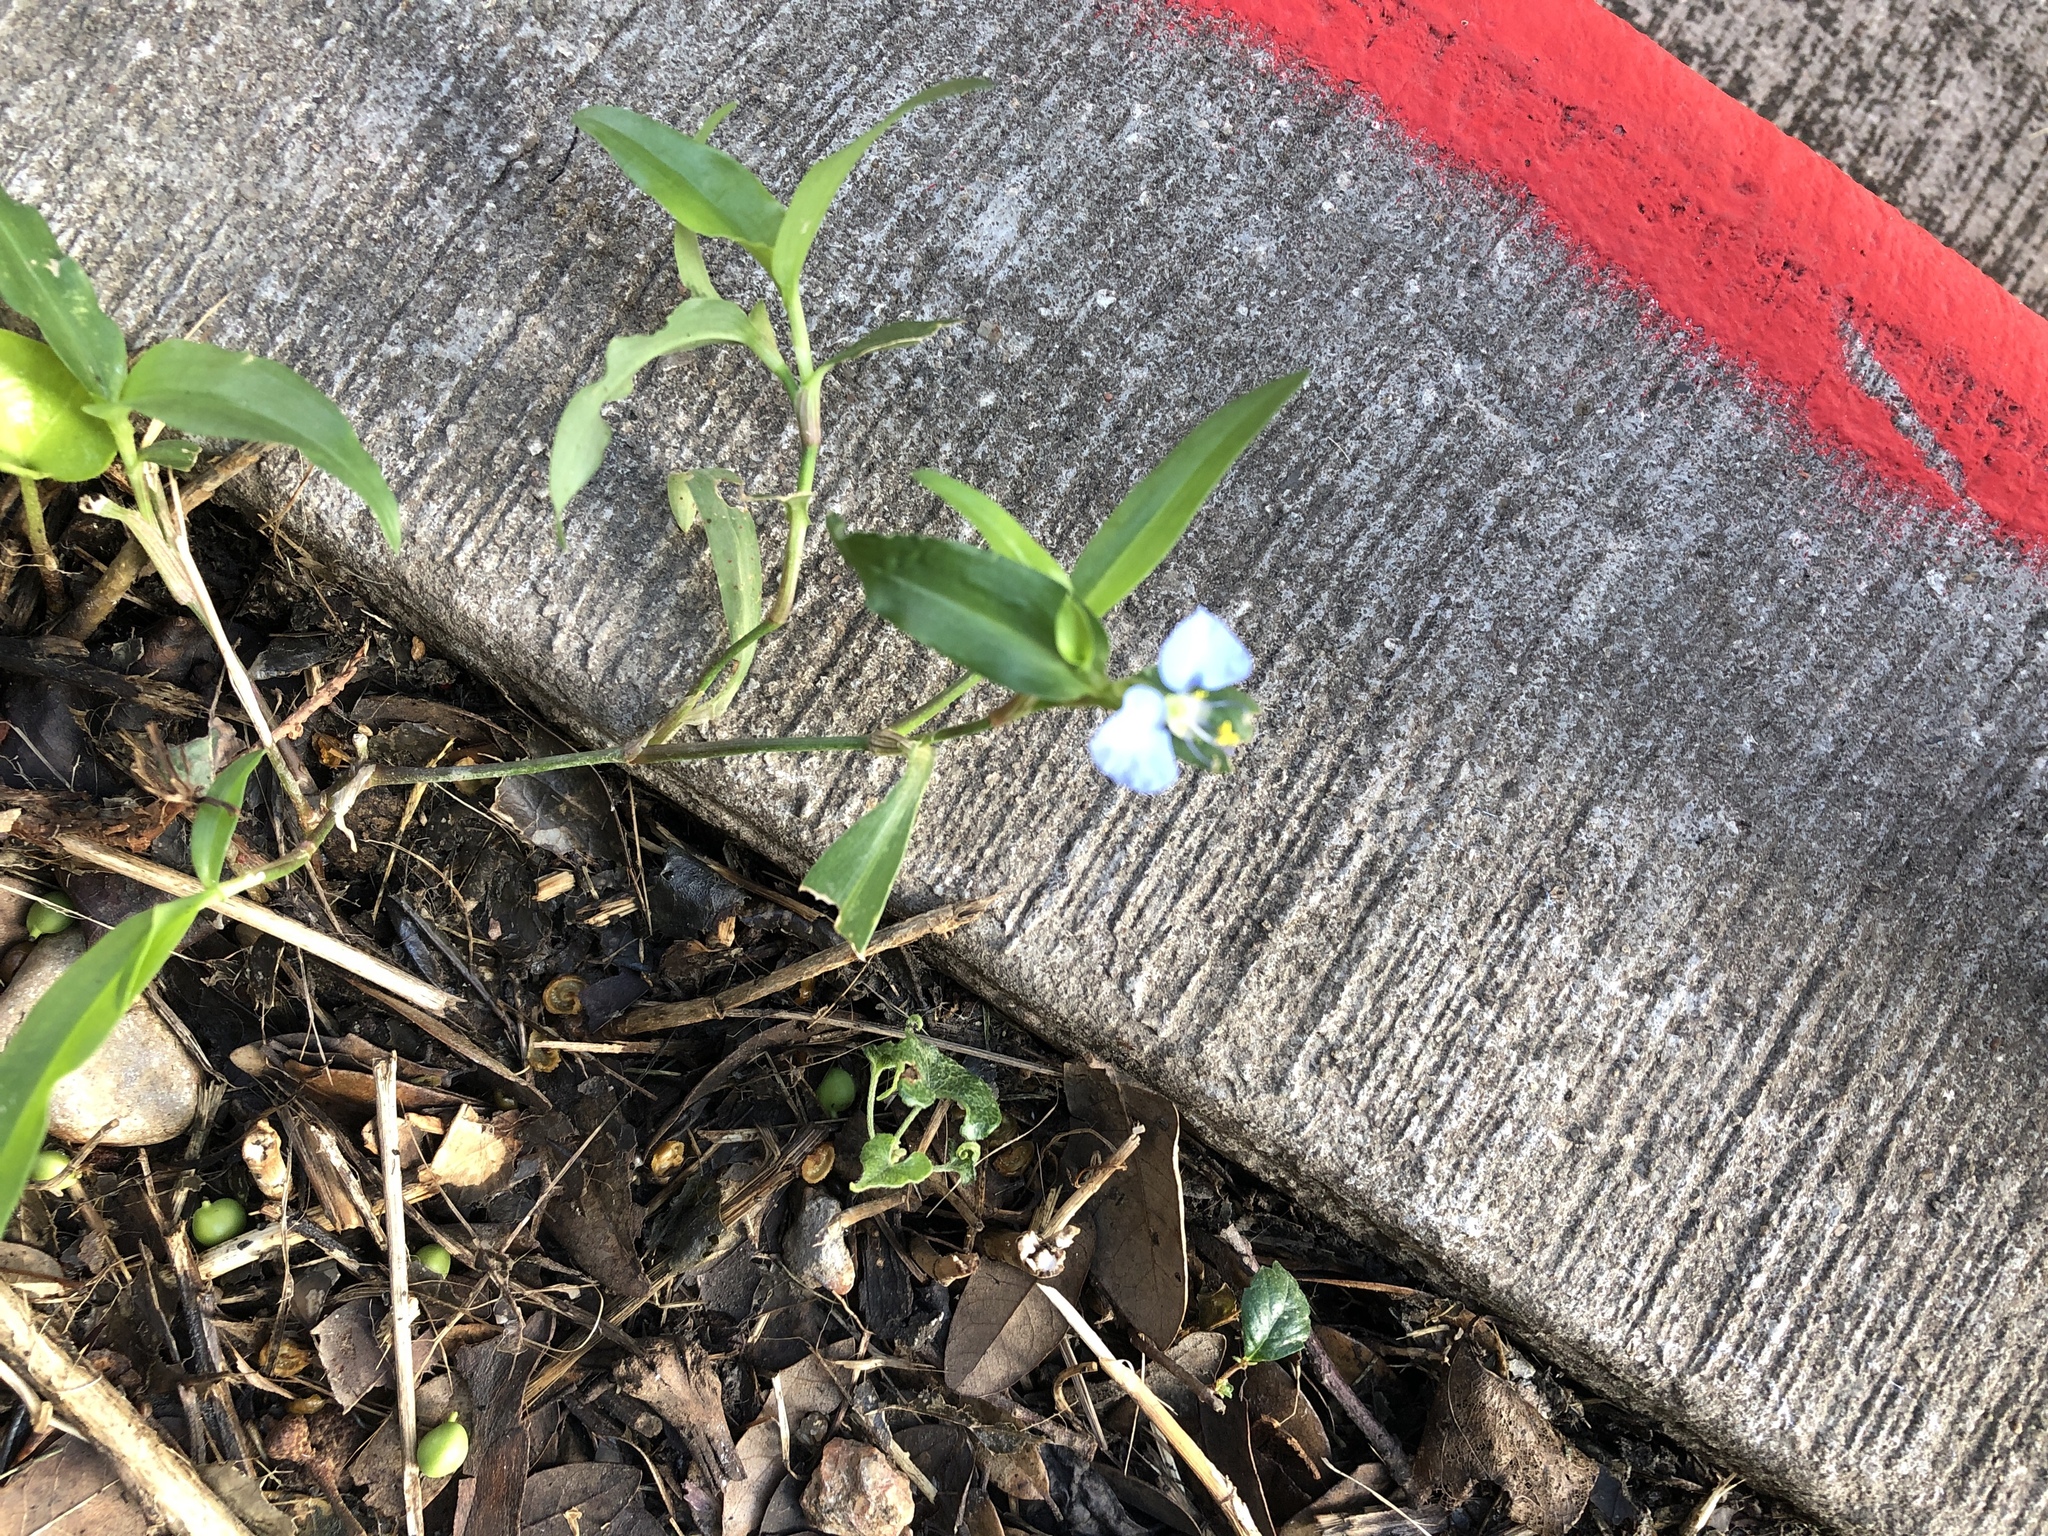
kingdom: Plantae
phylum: Tracheophyta
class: Liliopsida
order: Commelinales
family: Commelinaceae
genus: Commelina
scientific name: Commelina erecta
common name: Blousel blommetjie
